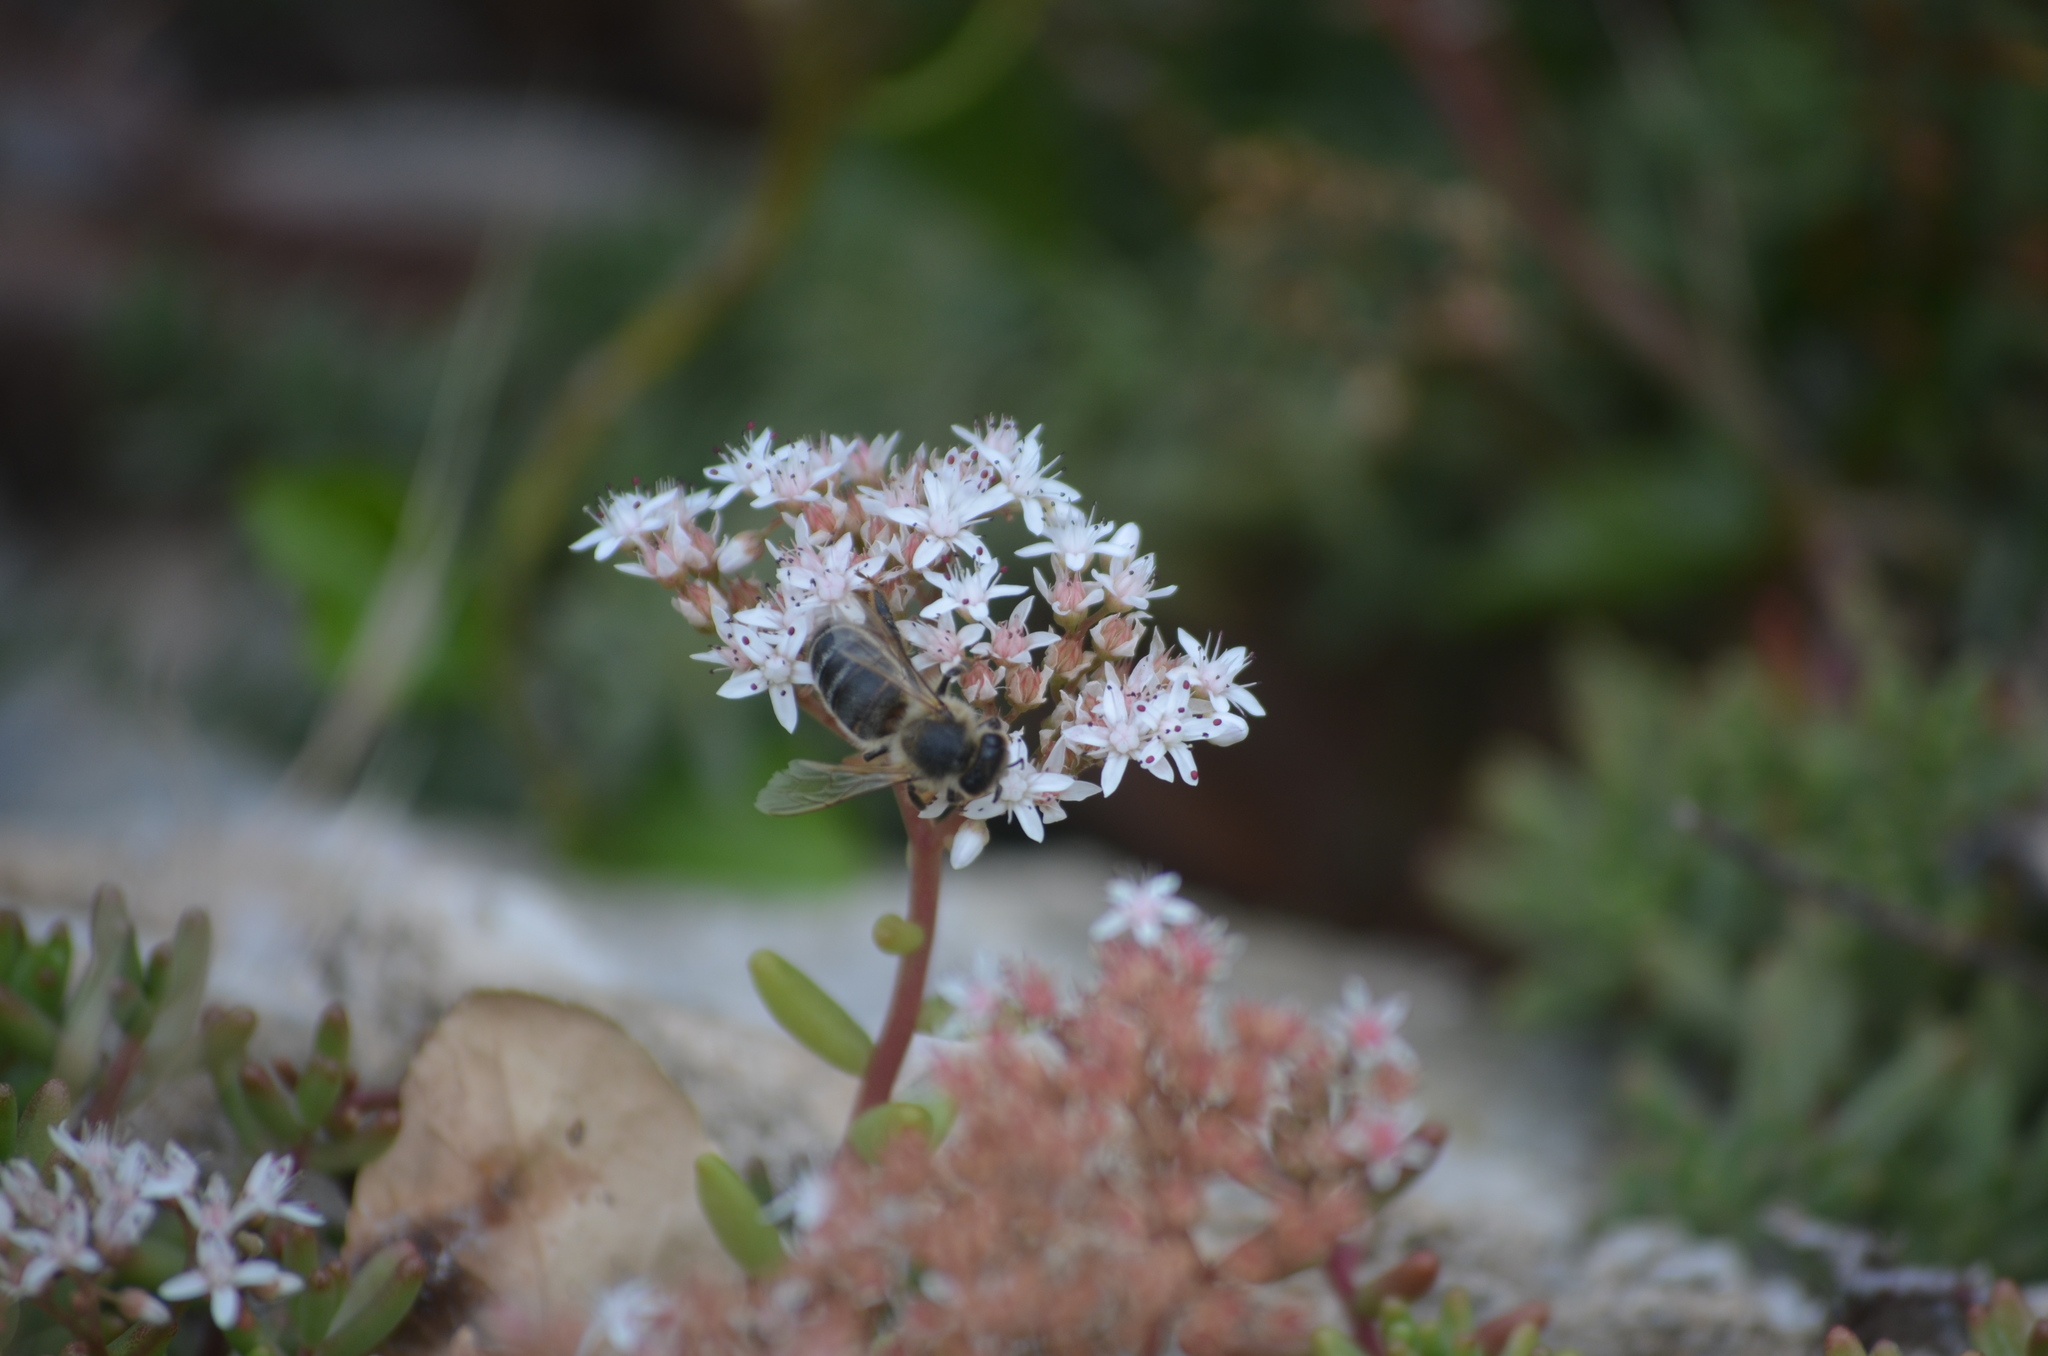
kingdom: Plantae
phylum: Tracheophyta
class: Magnoliopsida
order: Saxifragales
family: Crassulaceae
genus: Sedum
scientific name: Sedum album
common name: White stonecrop
